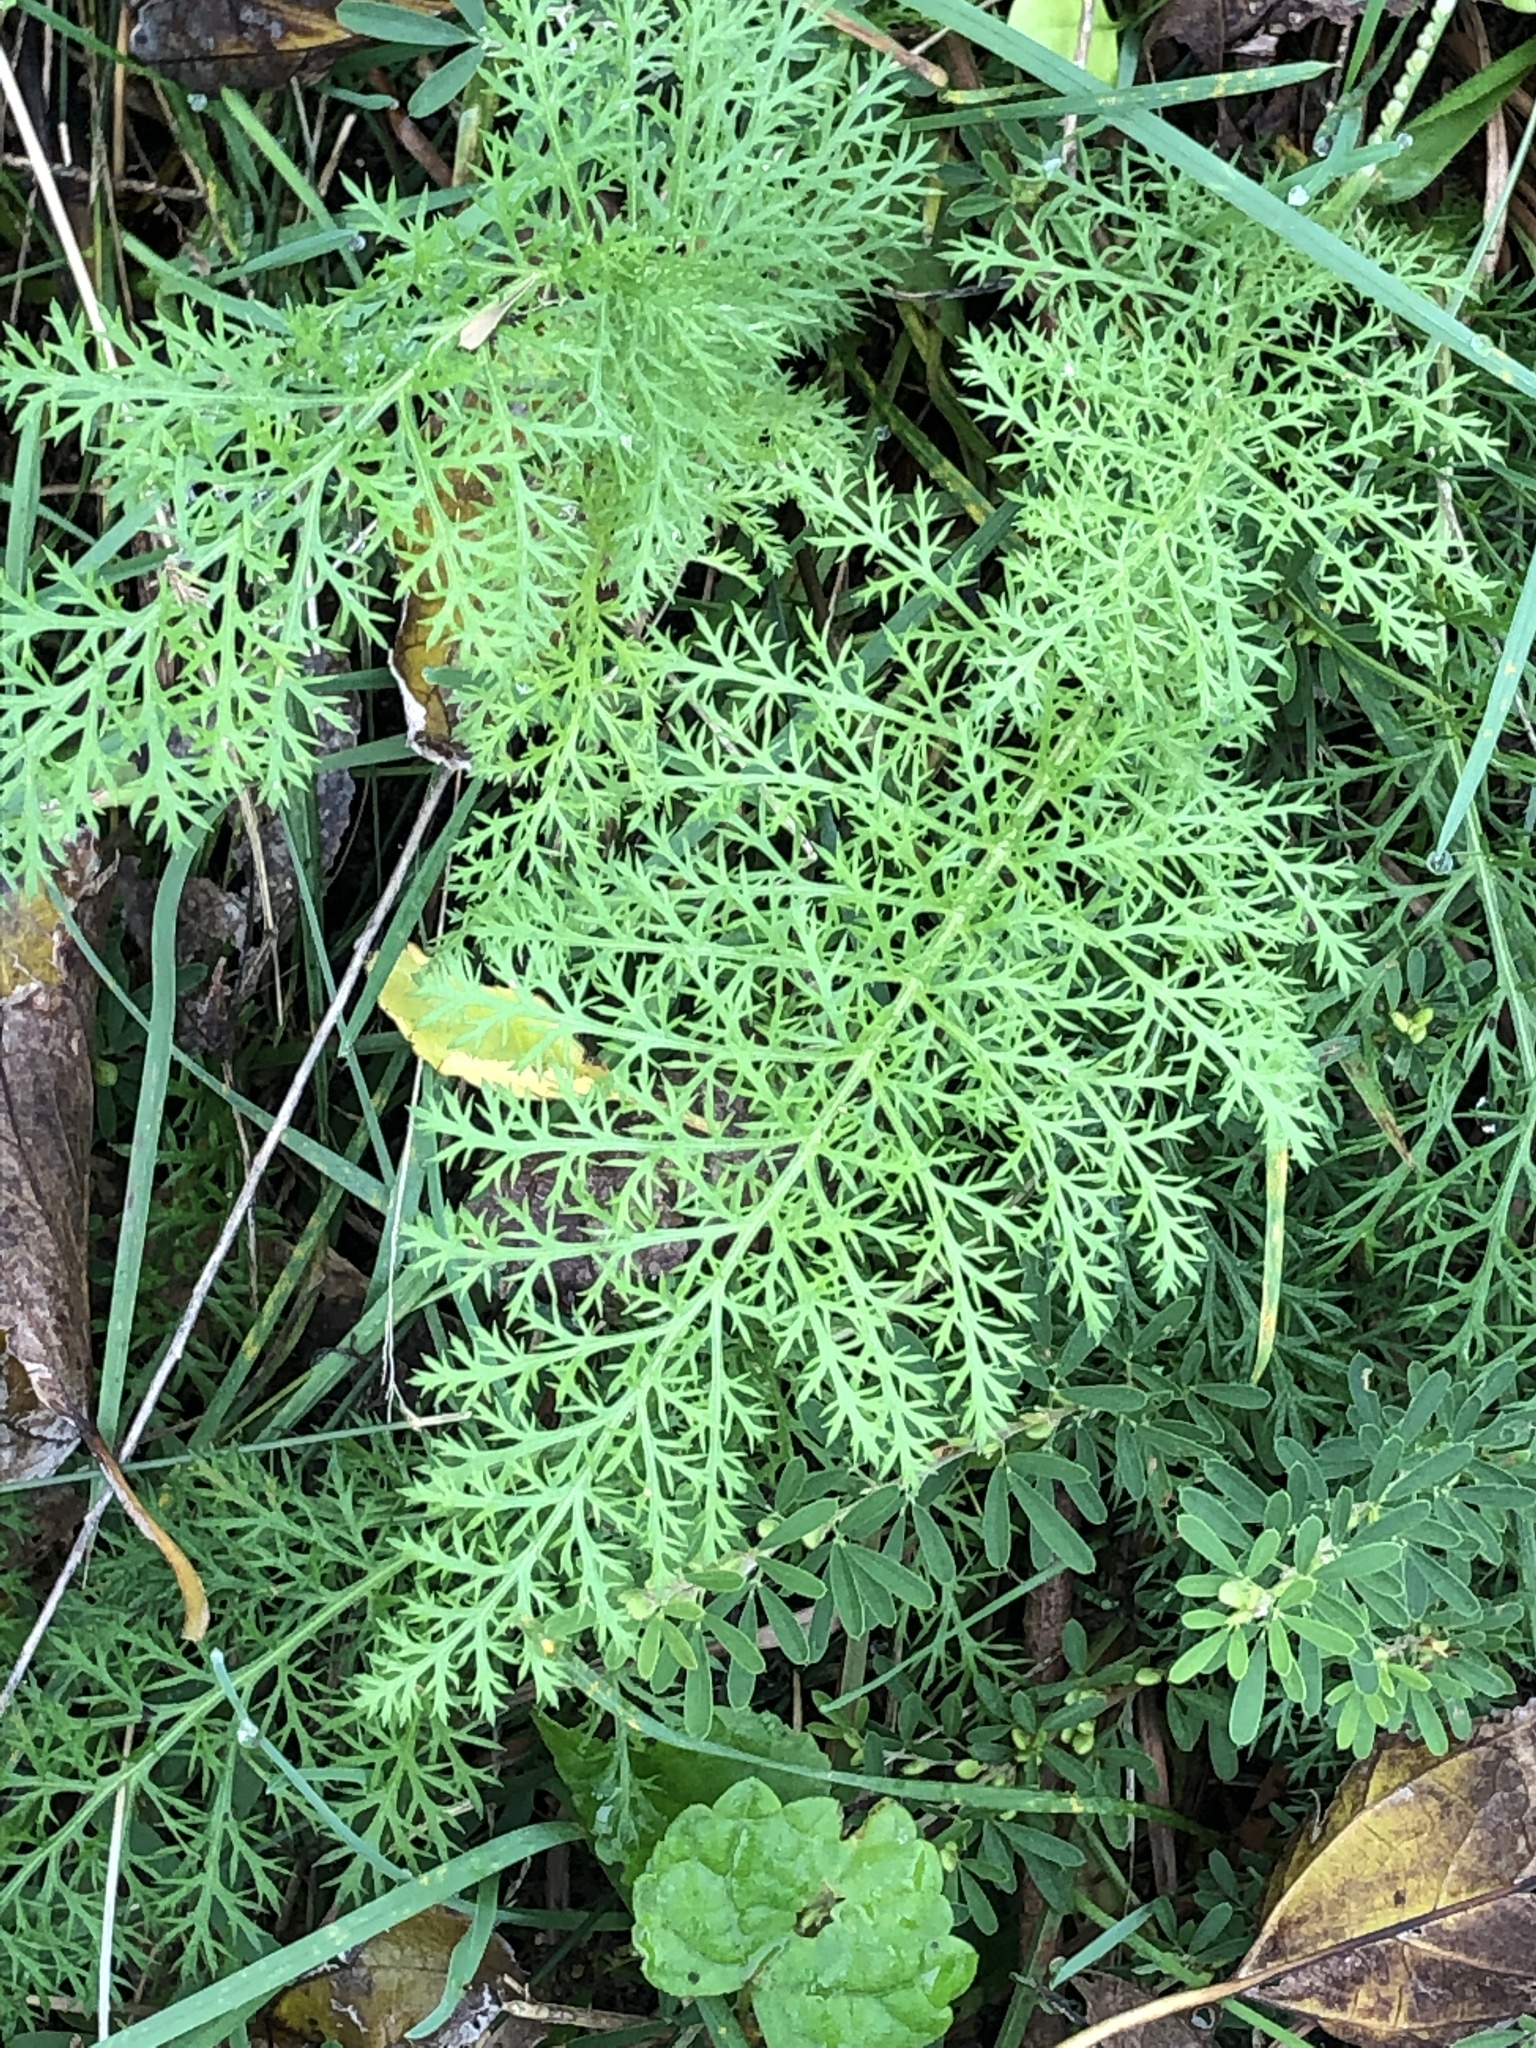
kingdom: Plantae
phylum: Tracheophyta
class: Magnoliopsida
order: Asterales
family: Asteraceae
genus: Achillea
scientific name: Achillea millefolium
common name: Yarrow
